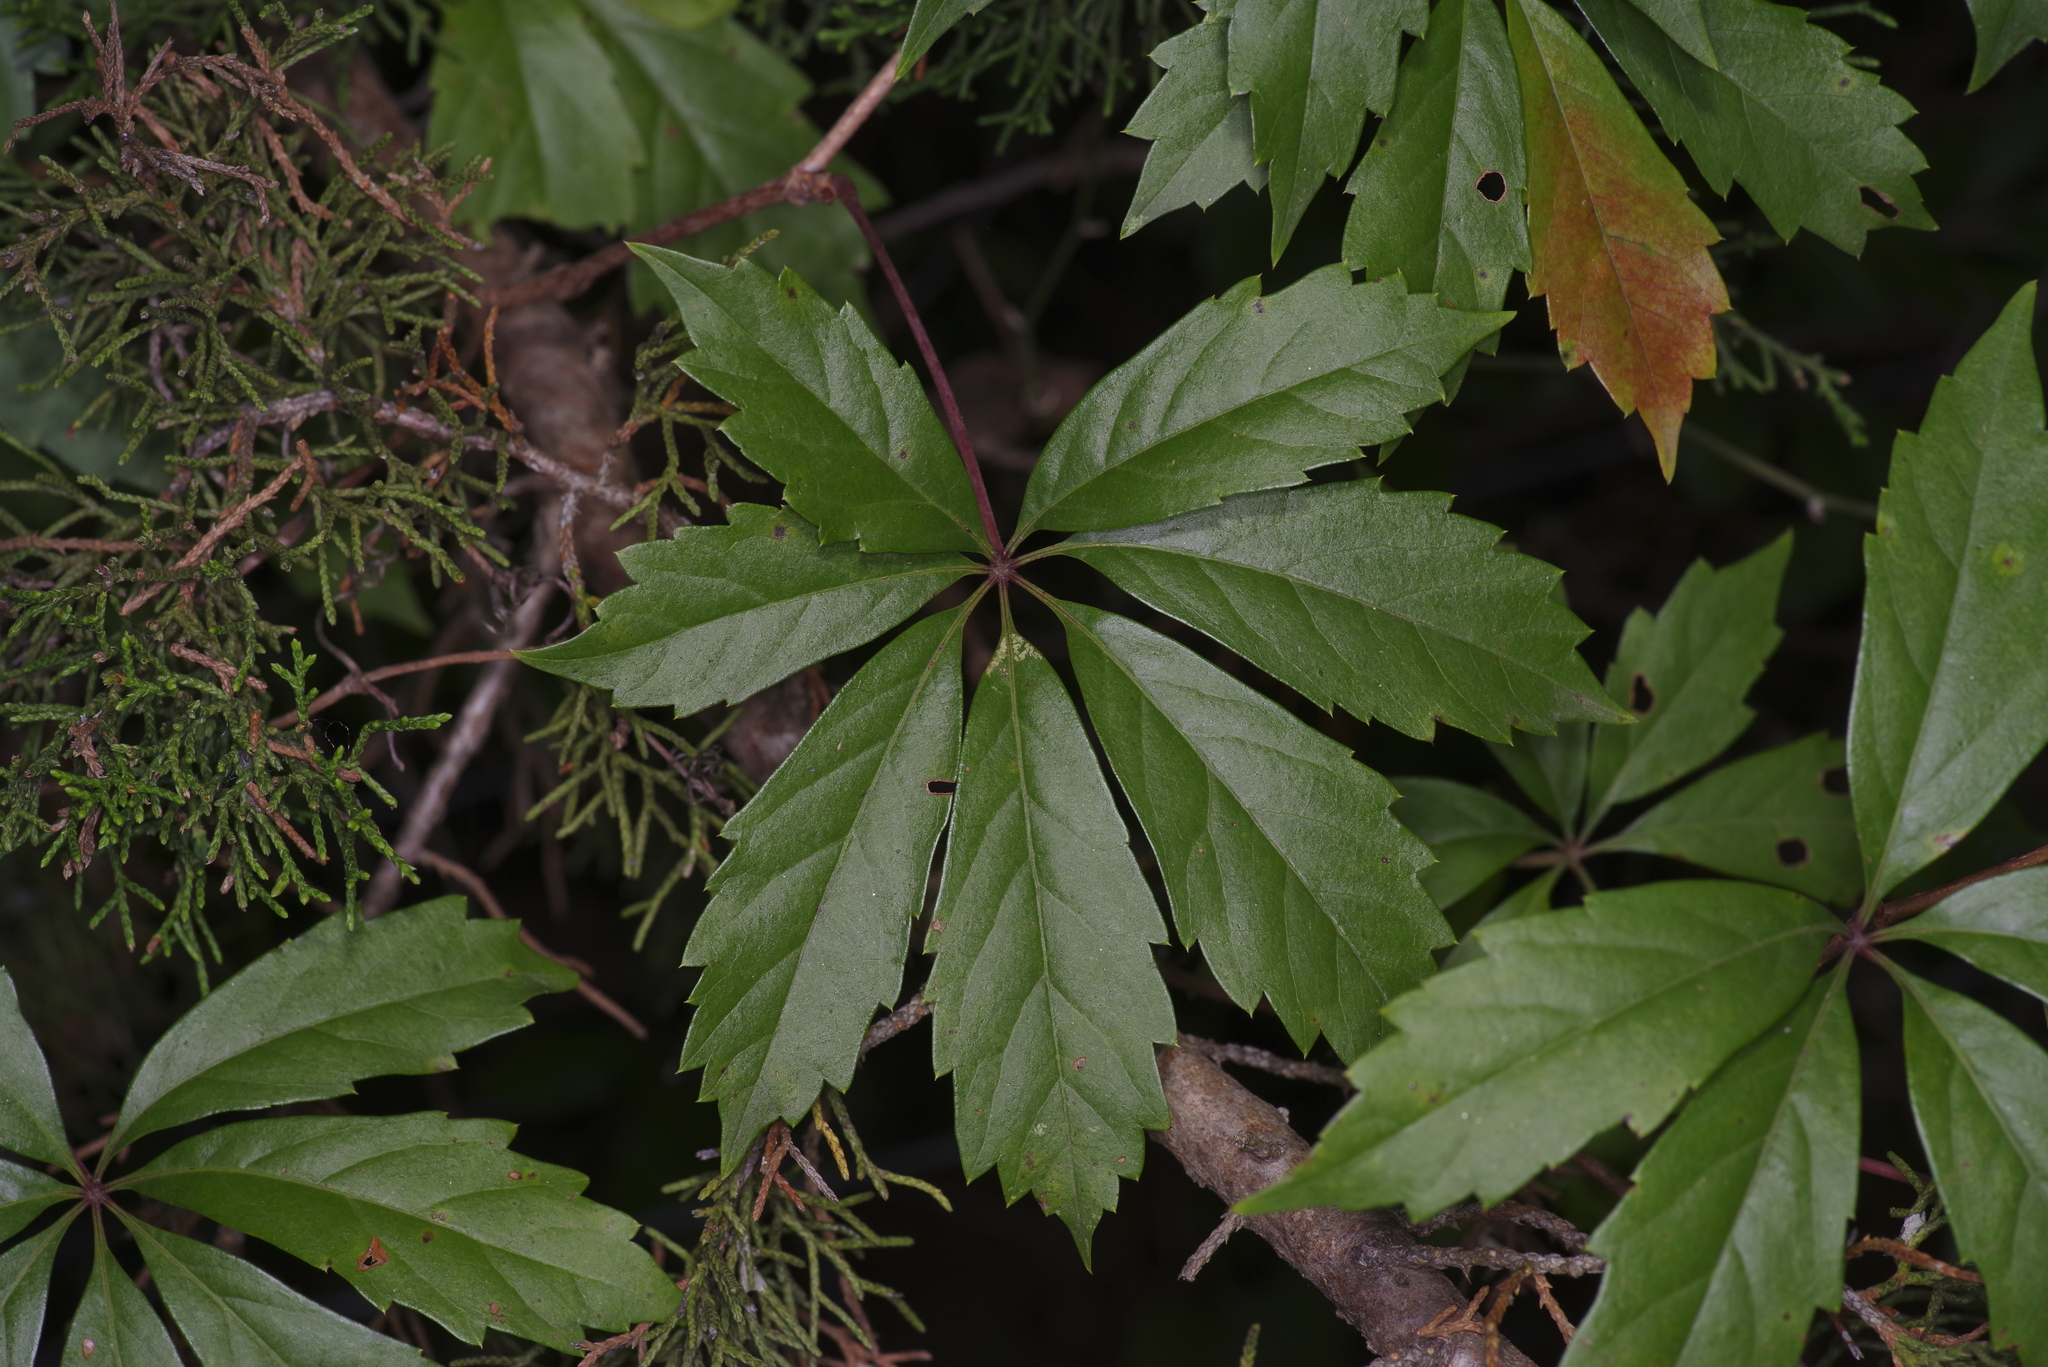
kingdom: Plantae
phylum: Tracheophyta
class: Magnoliopsida
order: Vitales
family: Vitaceae
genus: Parthenocissus
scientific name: Parthenocissus heptaphylla
